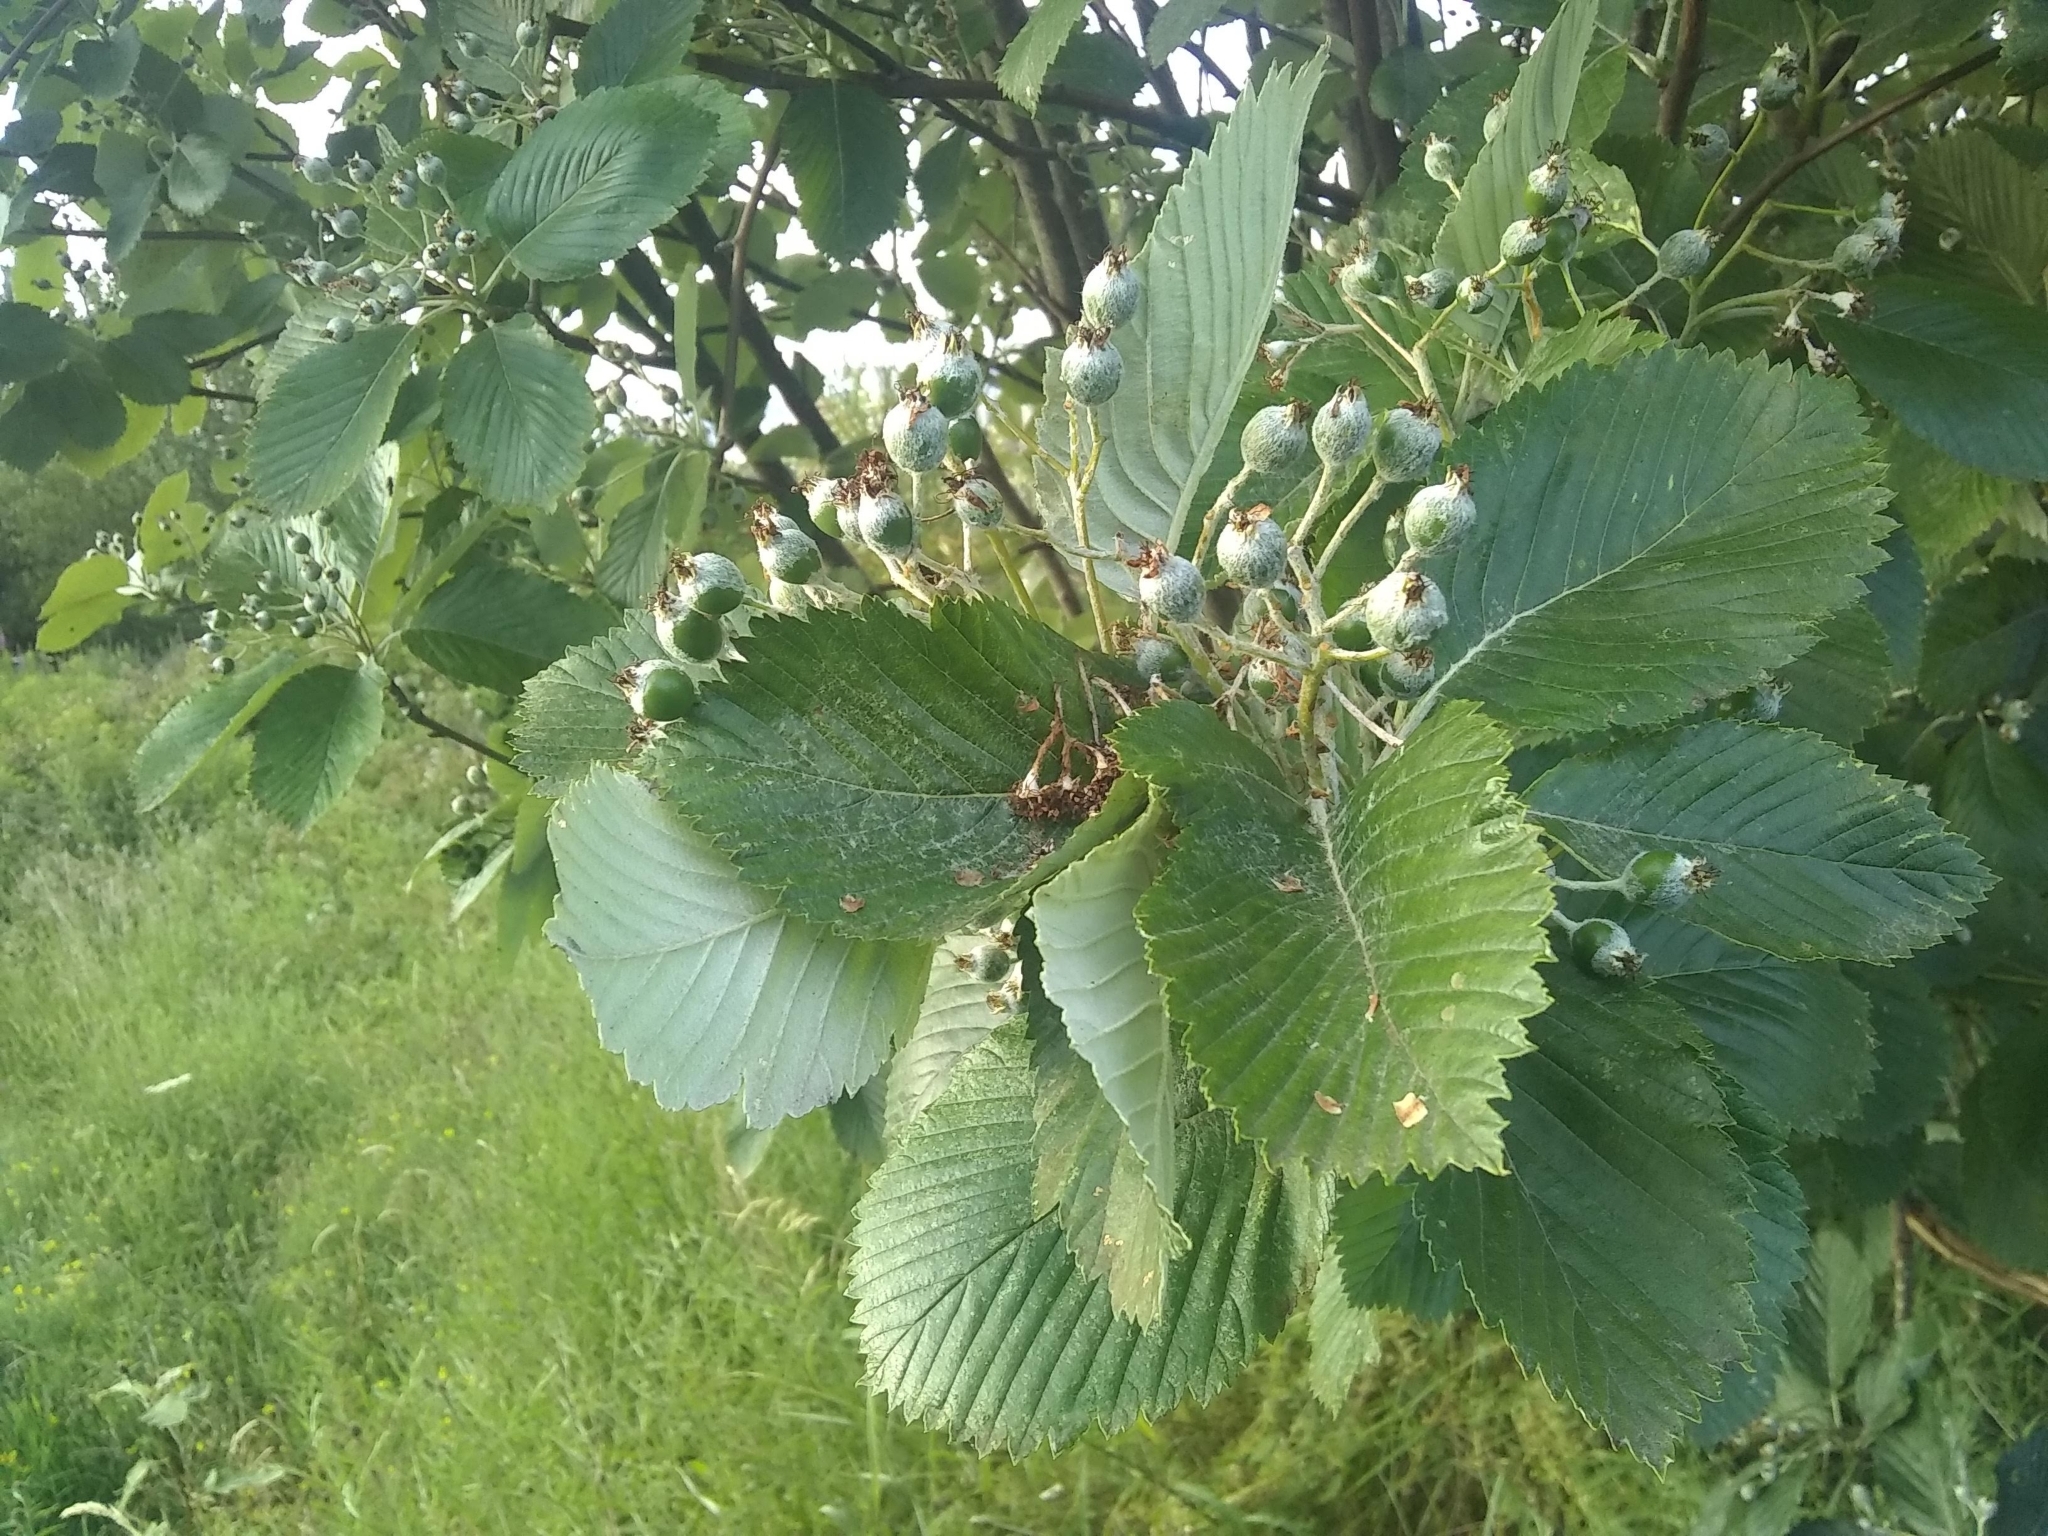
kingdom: Plantae
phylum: Tracheophyta
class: Magnoliopsida
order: Rosales
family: Rosaceae
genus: Aria
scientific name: Aria edulis
